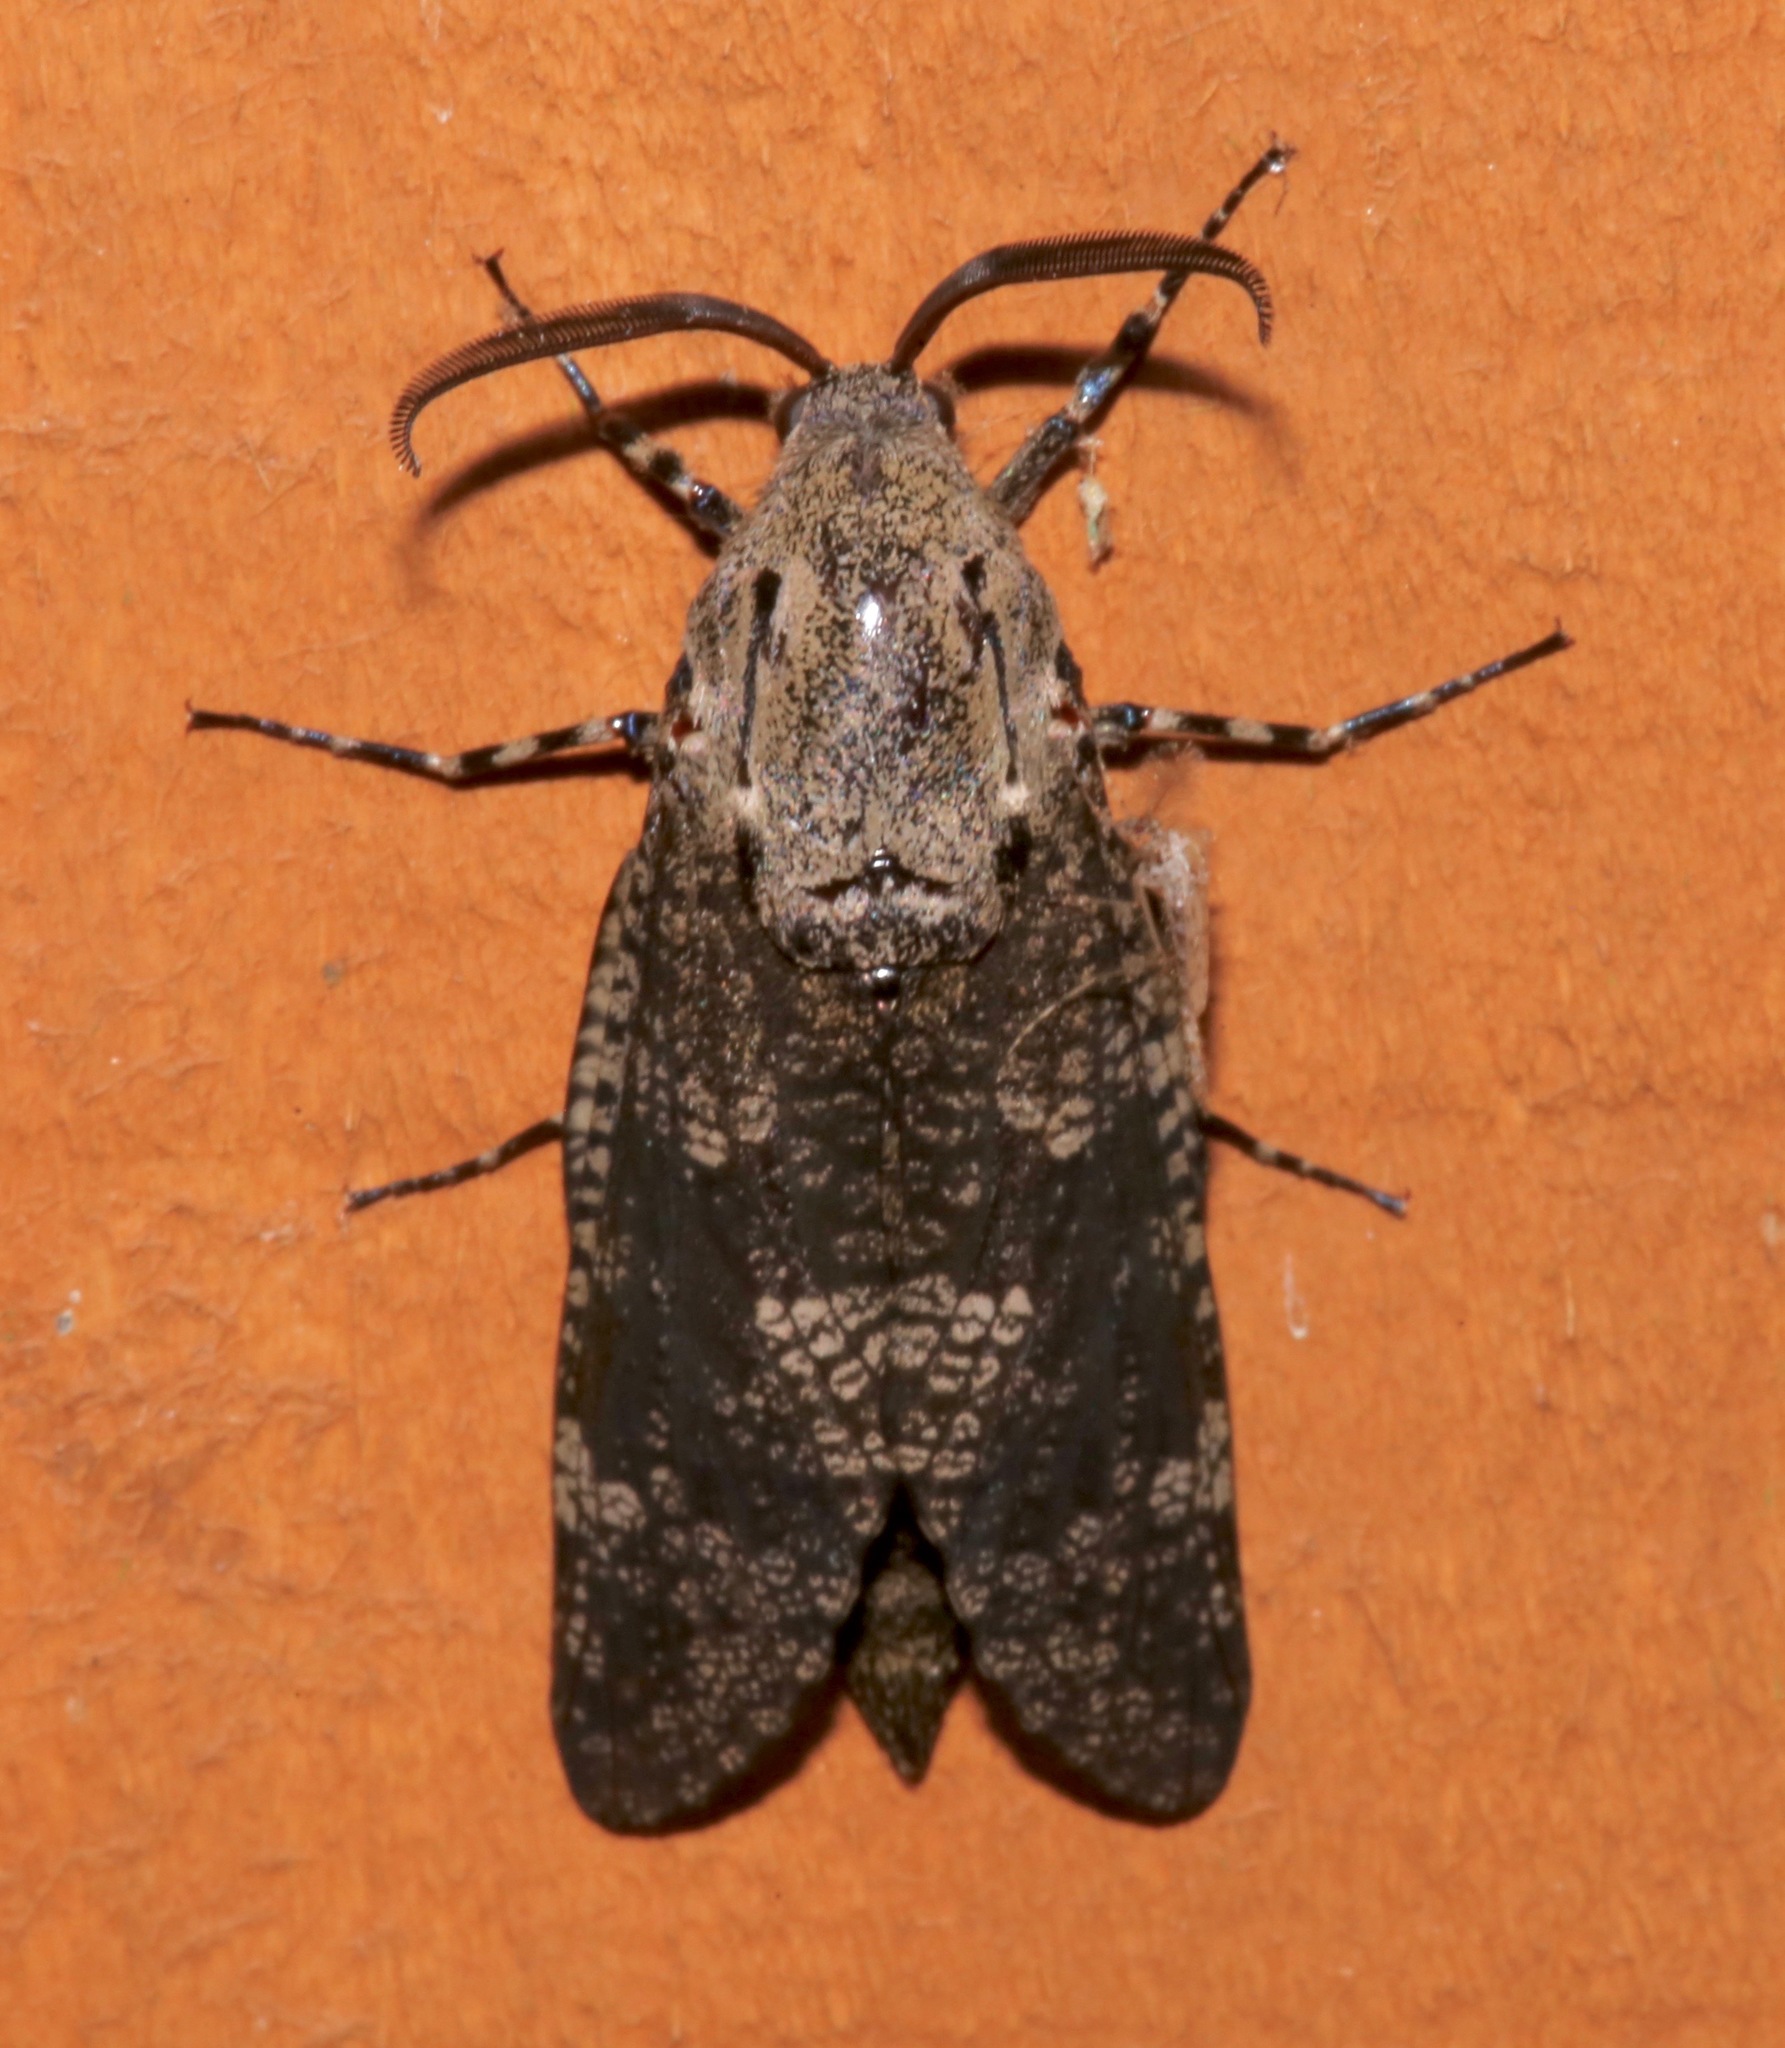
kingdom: Animalia
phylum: Arthropoda
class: Insecta
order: Lepidoptera
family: Cossidae
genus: Prionoxystus
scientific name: Prionoxystus robiniae
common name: Carpenterworm
